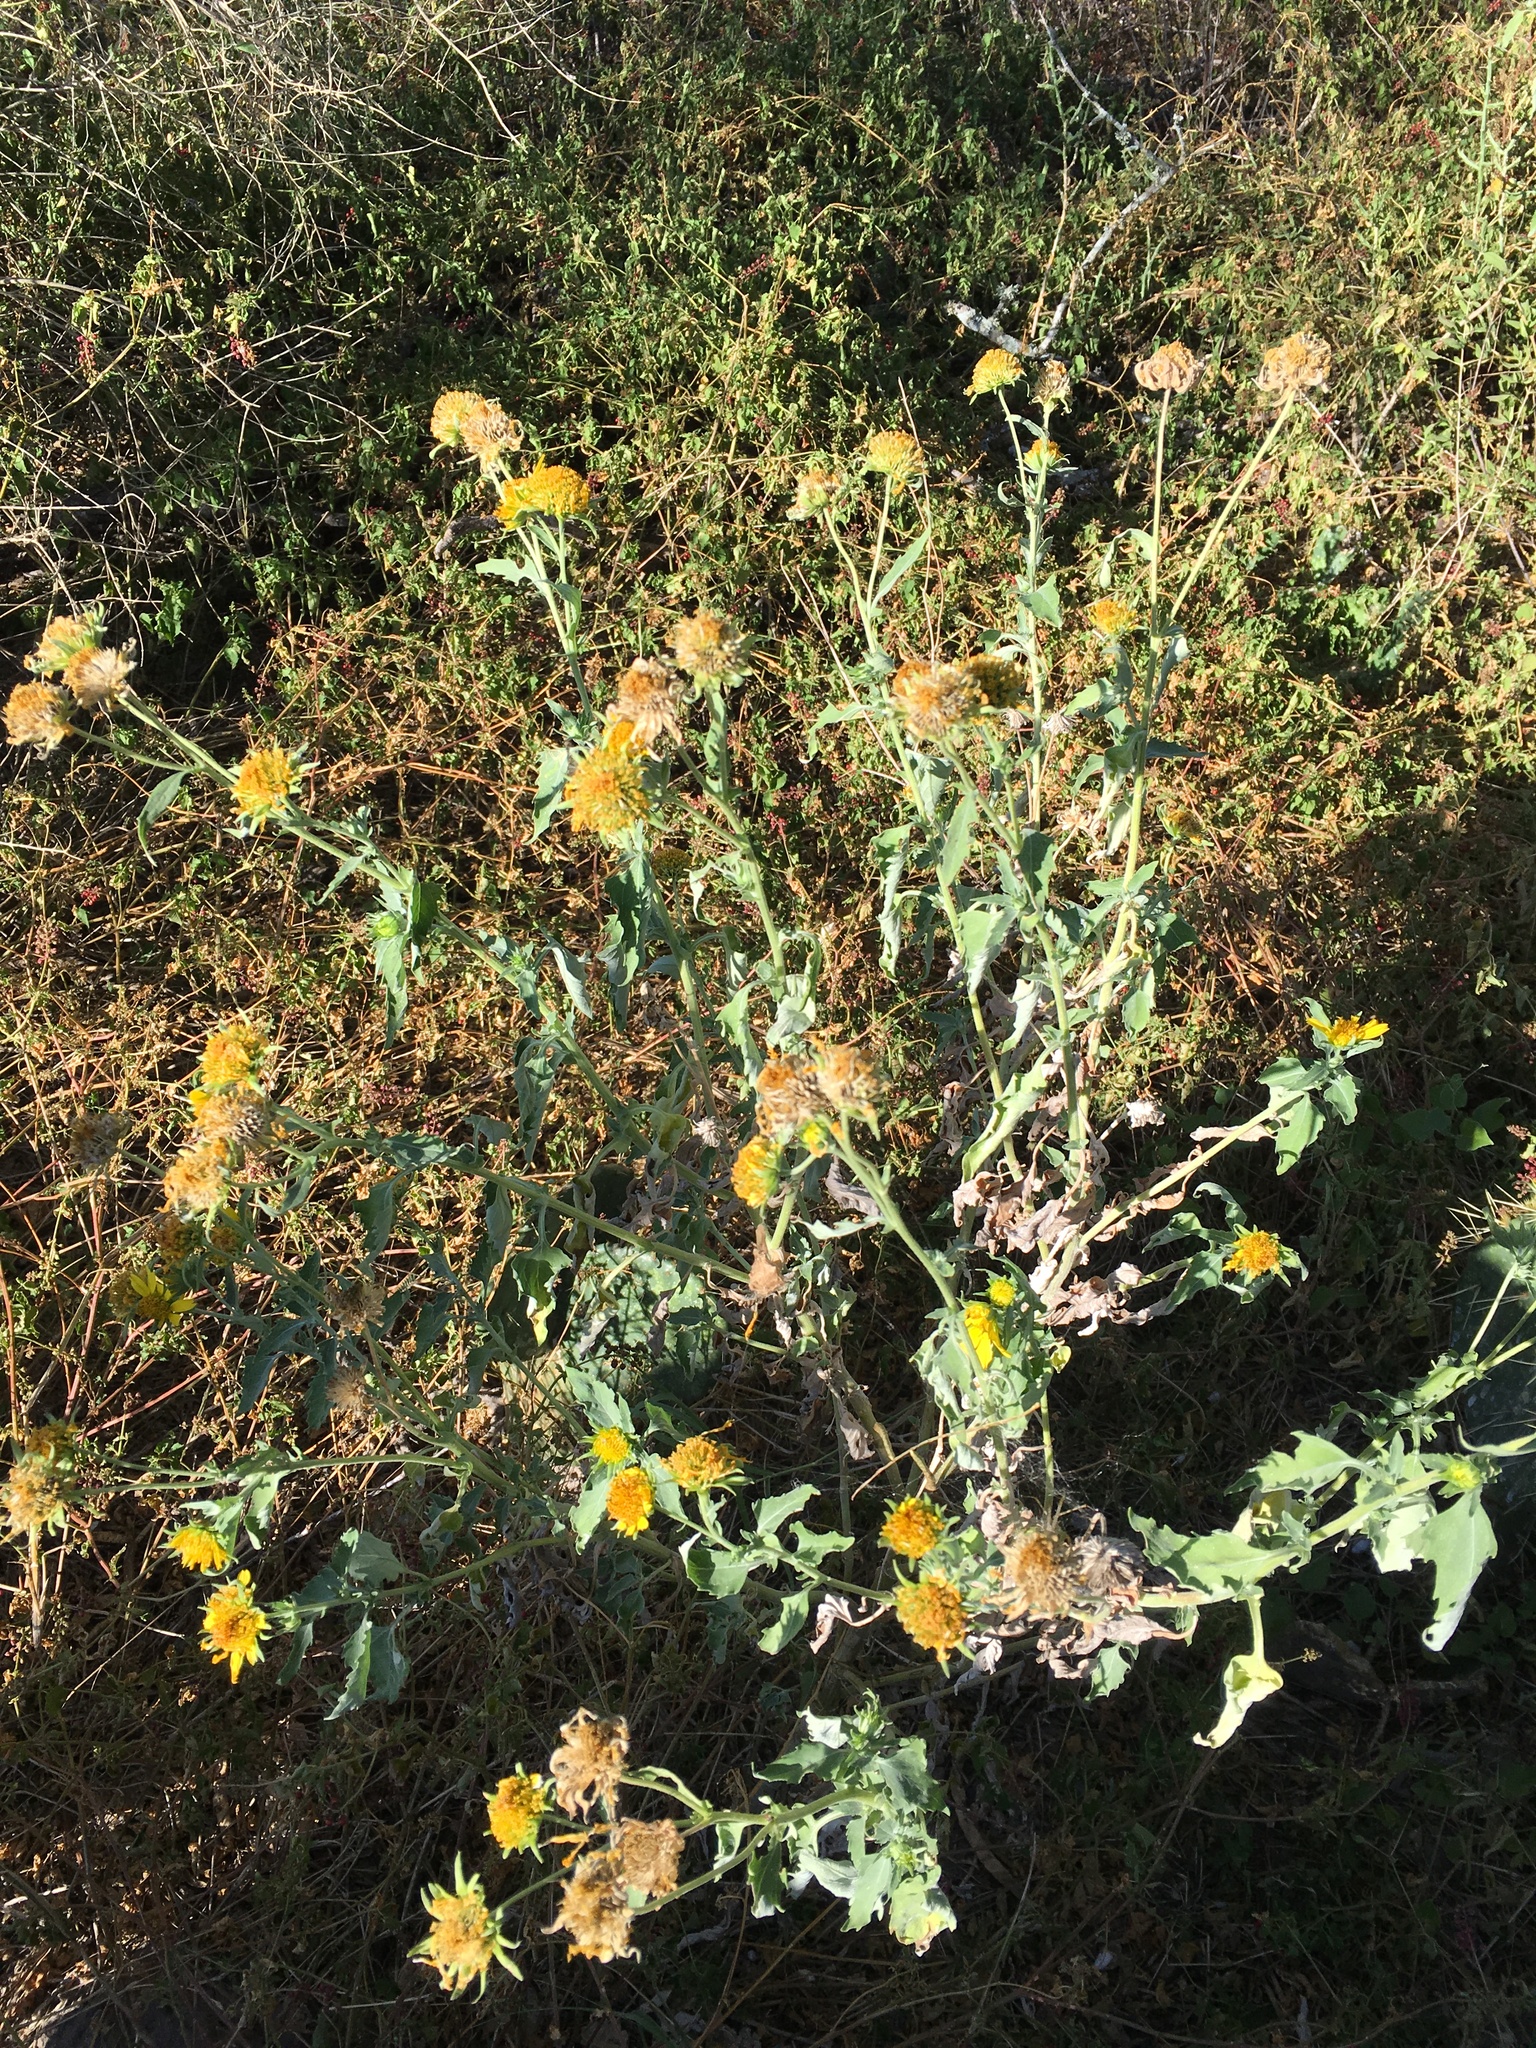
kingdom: Plantae
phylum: Tracheophyta
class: Magnoliopsida
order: Asterales
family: Asteraceae
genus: Verbesina
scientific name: Verbesina encelioides
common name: Golden crownbeard
